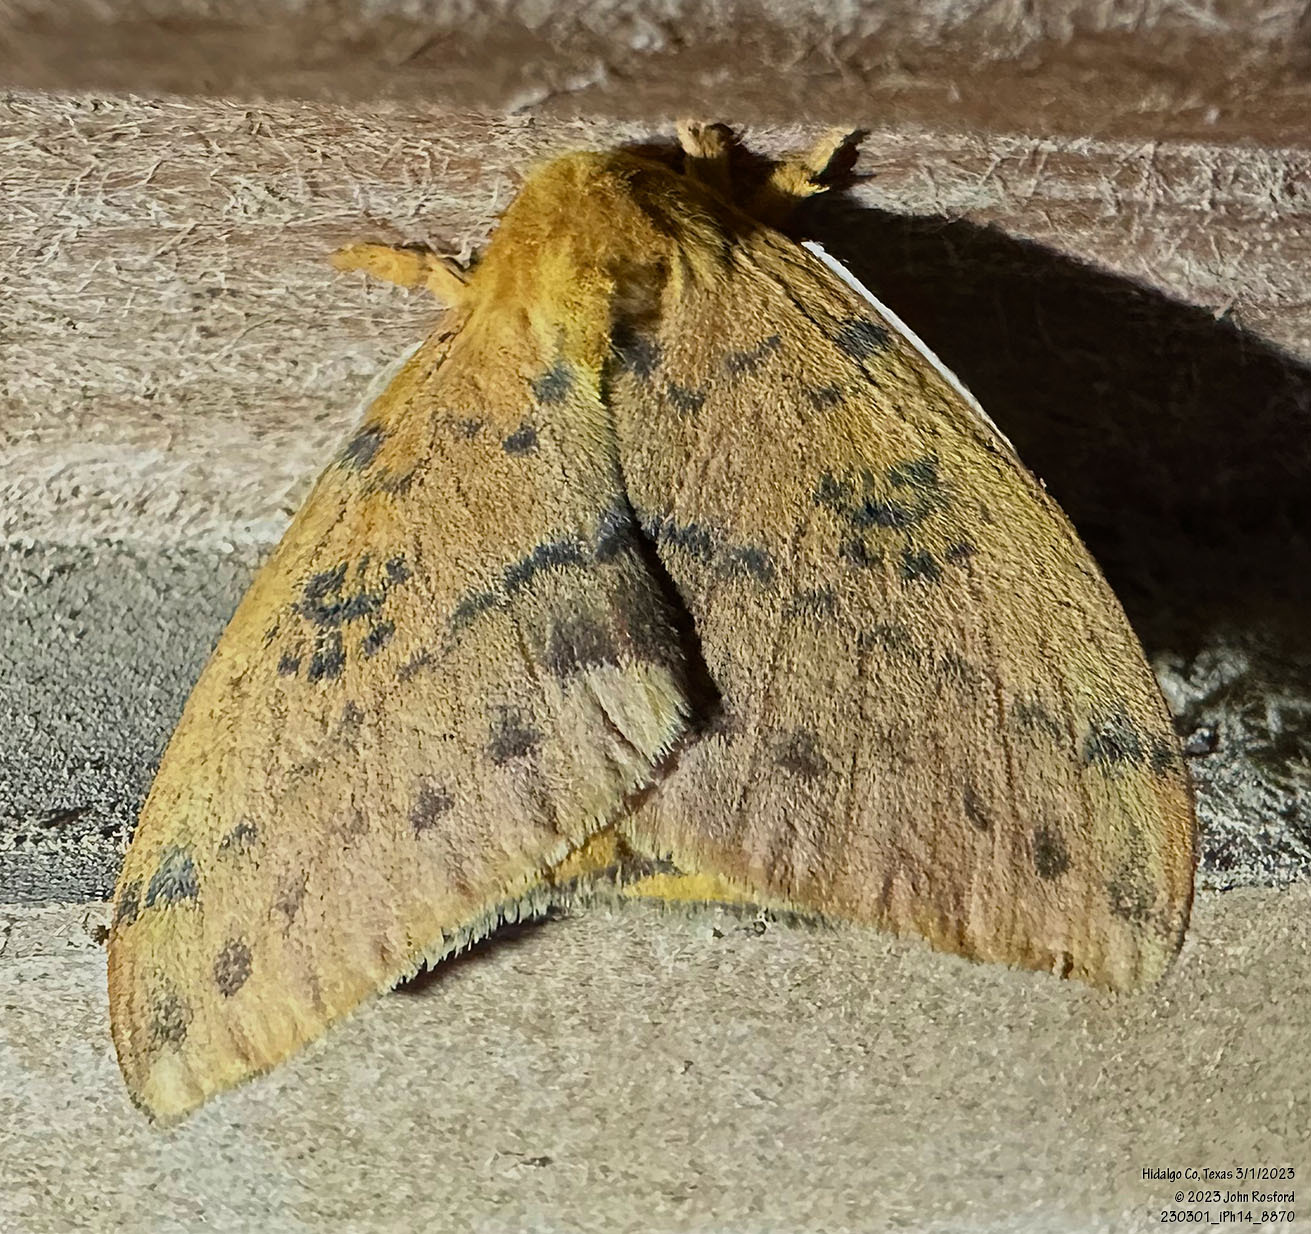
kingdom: Animalia
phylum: Arthropoda
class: Insecta
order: Lepidoptera
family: Saturniidae
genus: Automeris
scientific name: Automeris io
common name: Io moth
